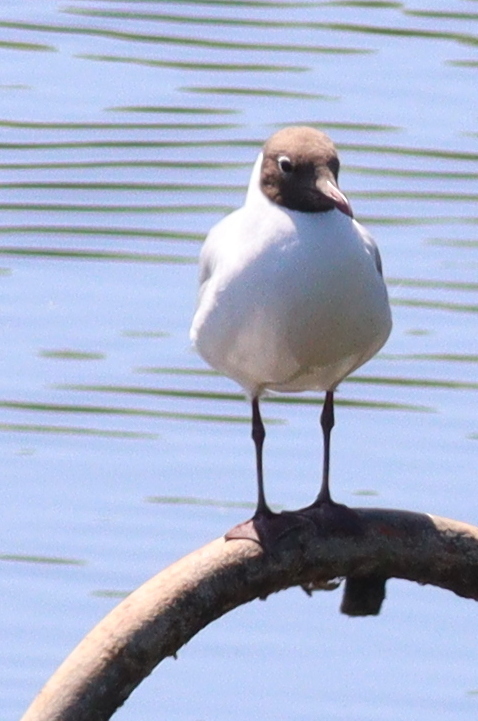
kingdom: Animalia
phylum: Chordata
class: Aves
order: Charadriiformes
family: Laridae
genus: Chroicocephalus
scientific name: Chroicocephalus ridibundus
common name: Black-headed gull
